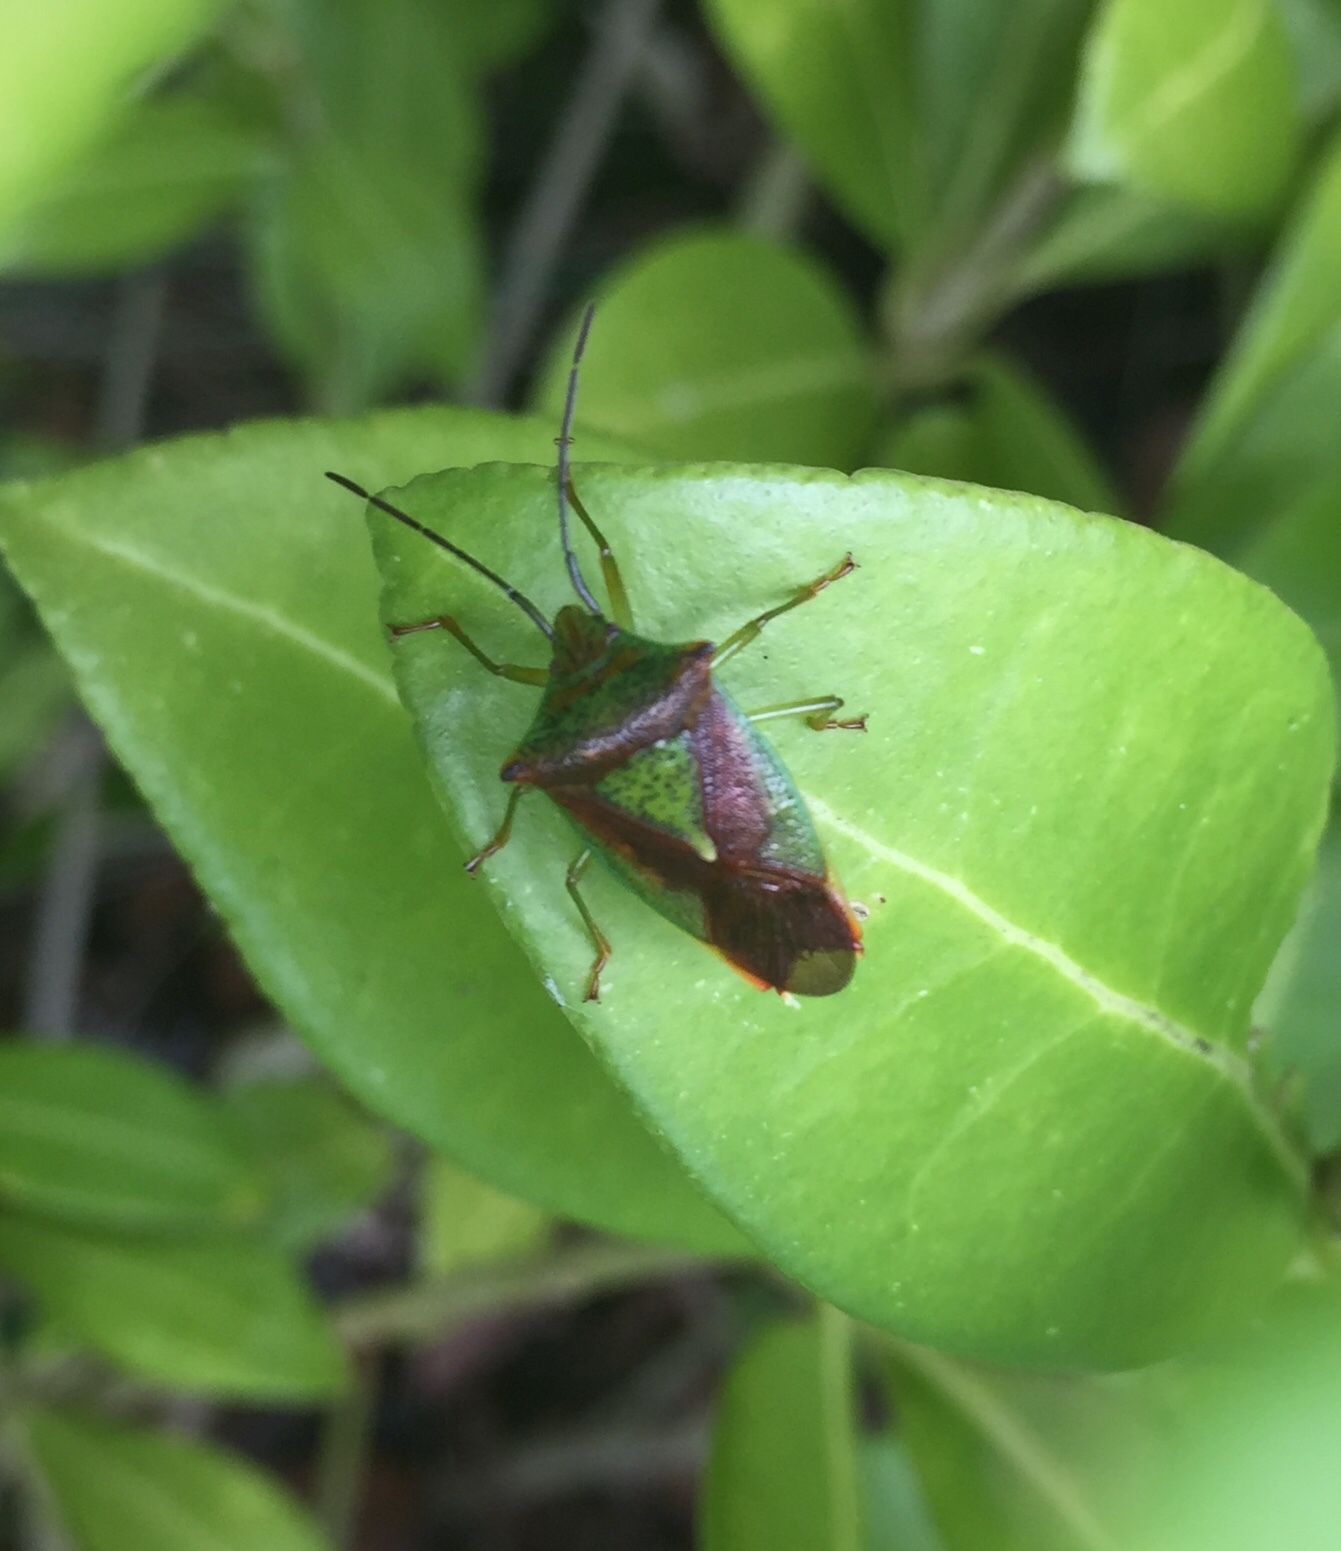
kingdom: Animalia
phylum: Arthropoda
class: Insecta
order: Hemiptera
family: Acanthosomatidae
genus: Acanthosoma
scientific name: Acanthosoma haemorrhoidale
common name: Hawthorn shieldbug
